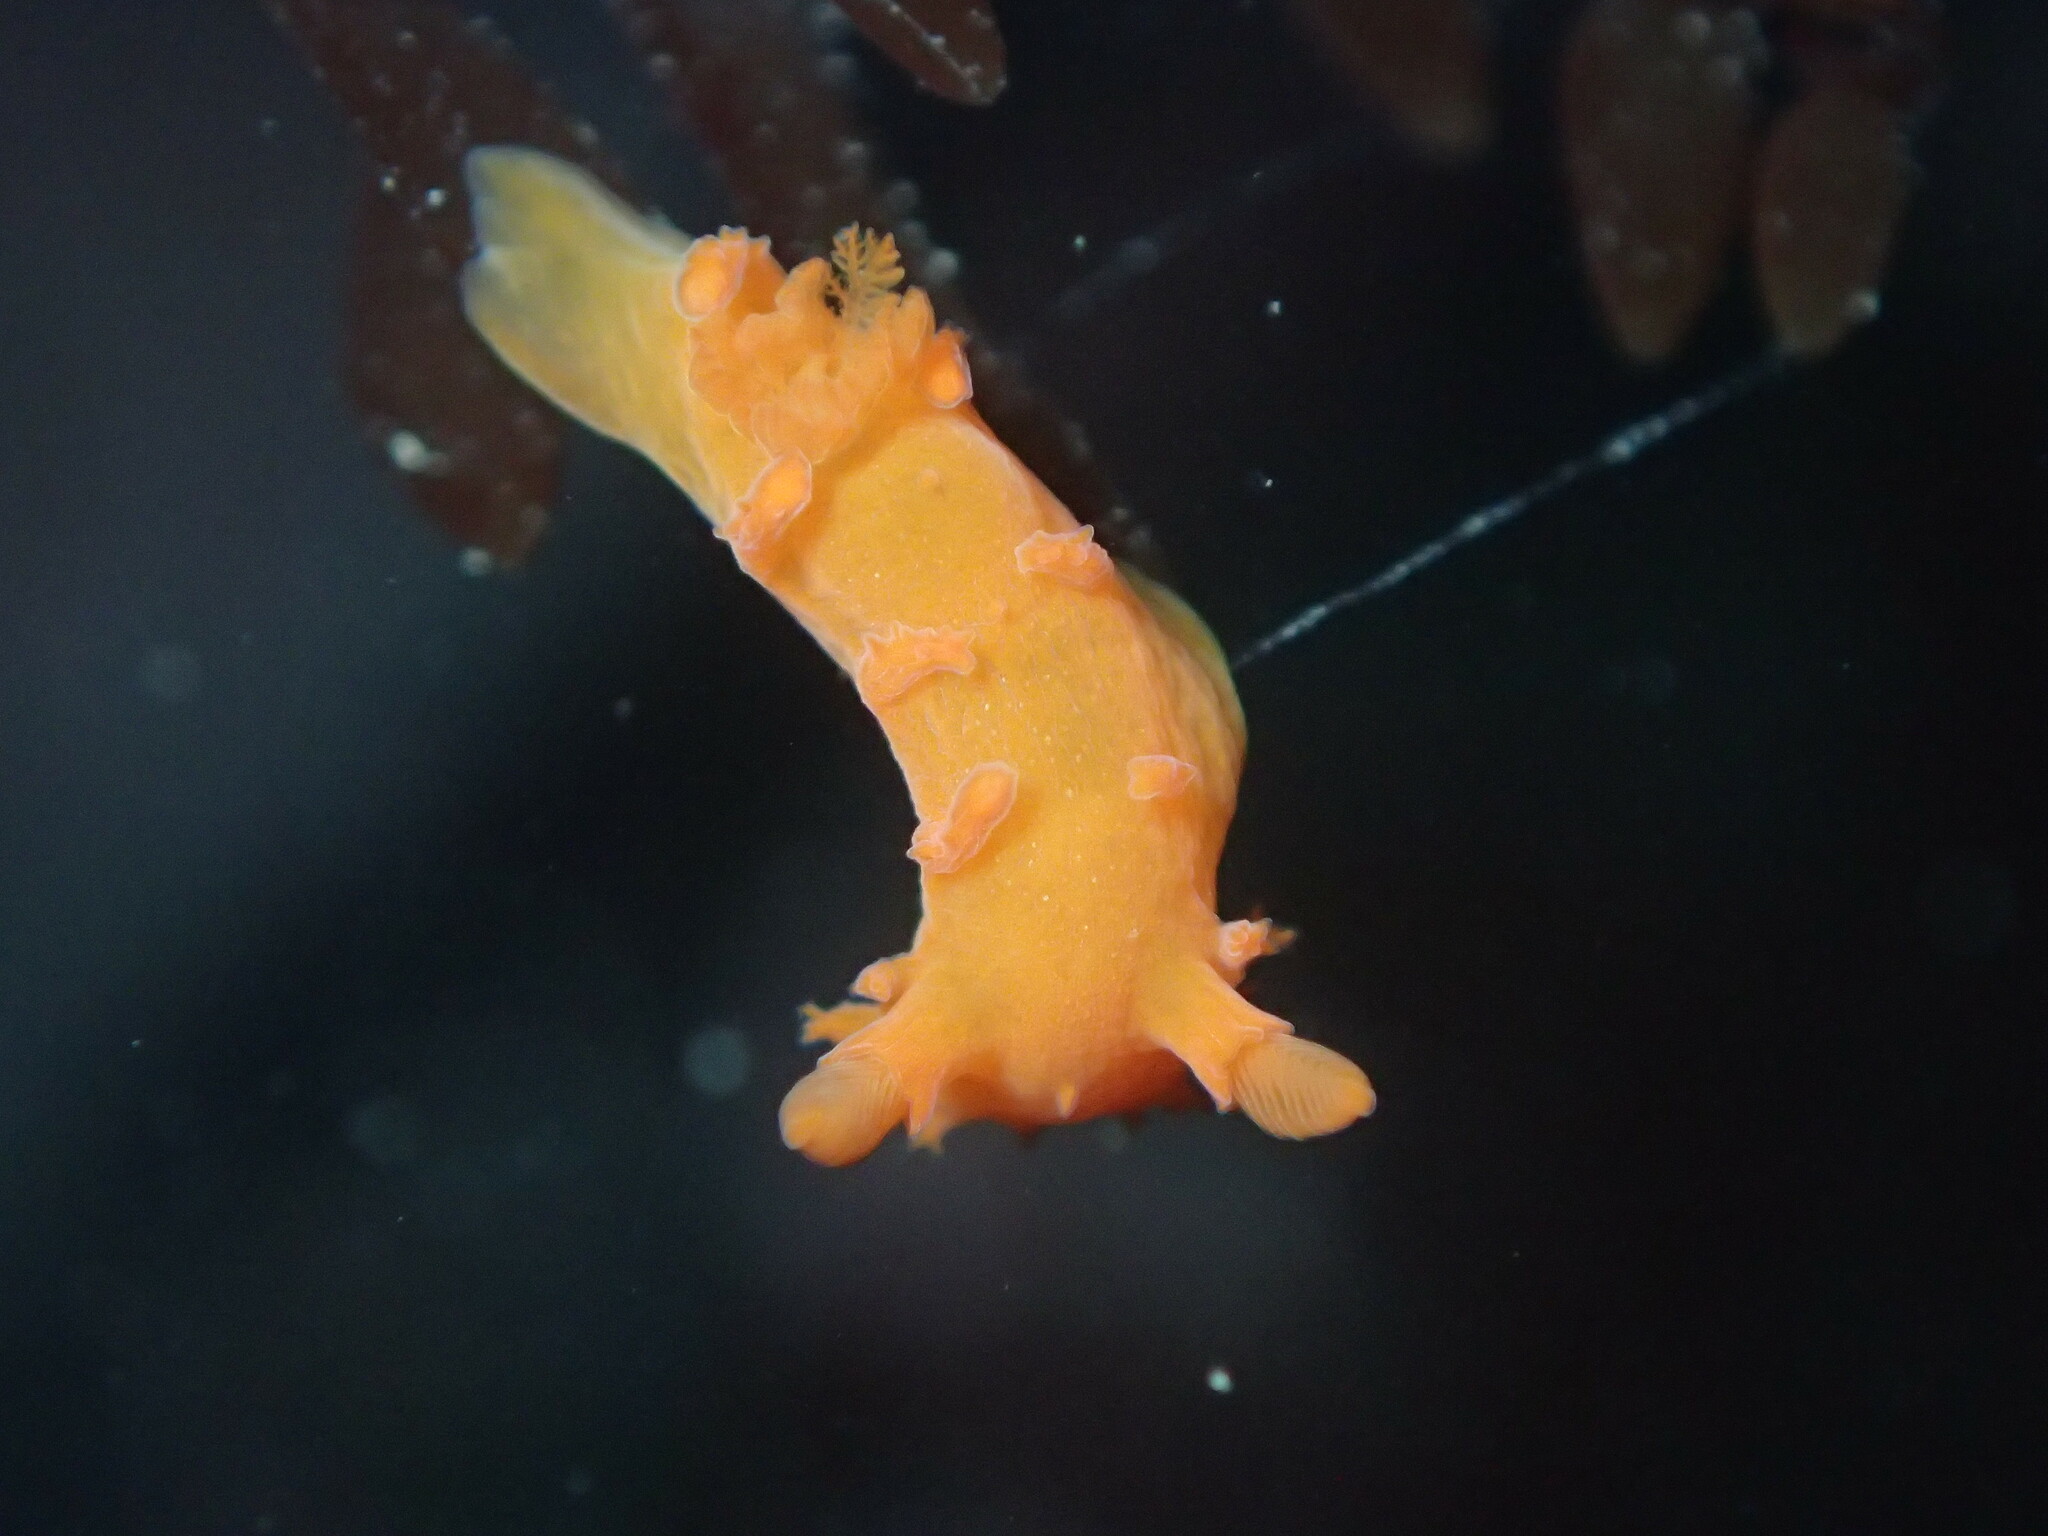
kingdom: Animalia
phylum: Mollusca
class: Gastropoda
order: Nudibranchia
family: Polyceridae
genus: Triopha
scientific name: Triopha maculata
